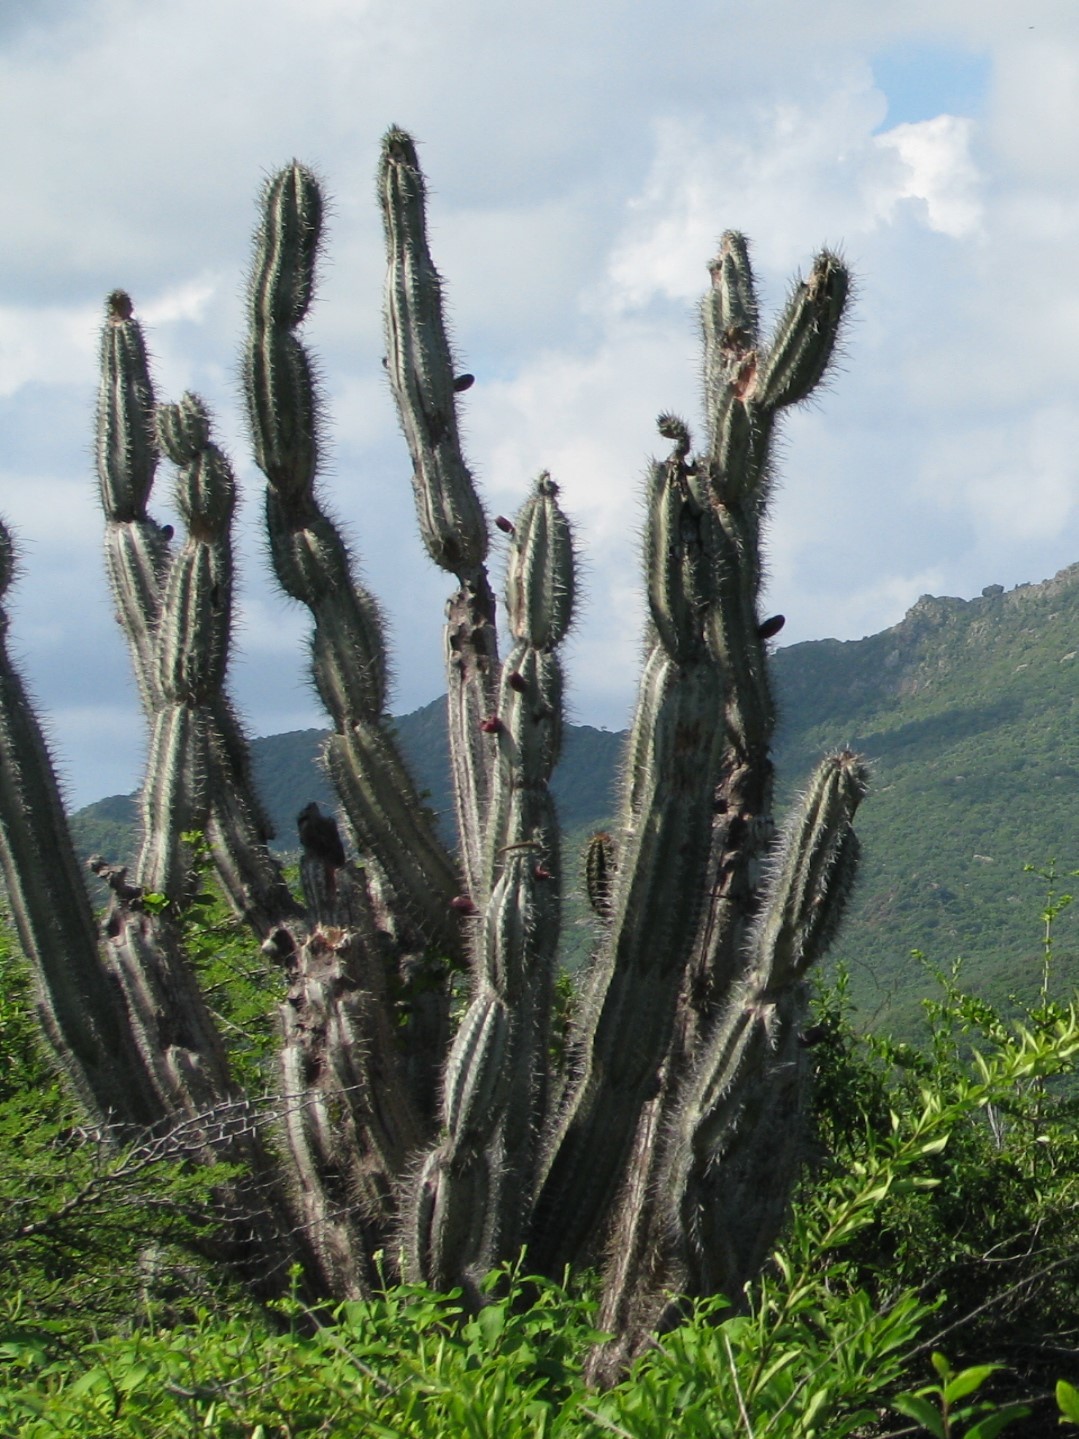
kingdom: Plantae
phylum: Tracheophyta
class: Magnoliopsida
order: Caryophyllales
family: Cactaceae
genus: Cereus
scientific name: Cereus repandus
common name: Sweetpotato cactus
